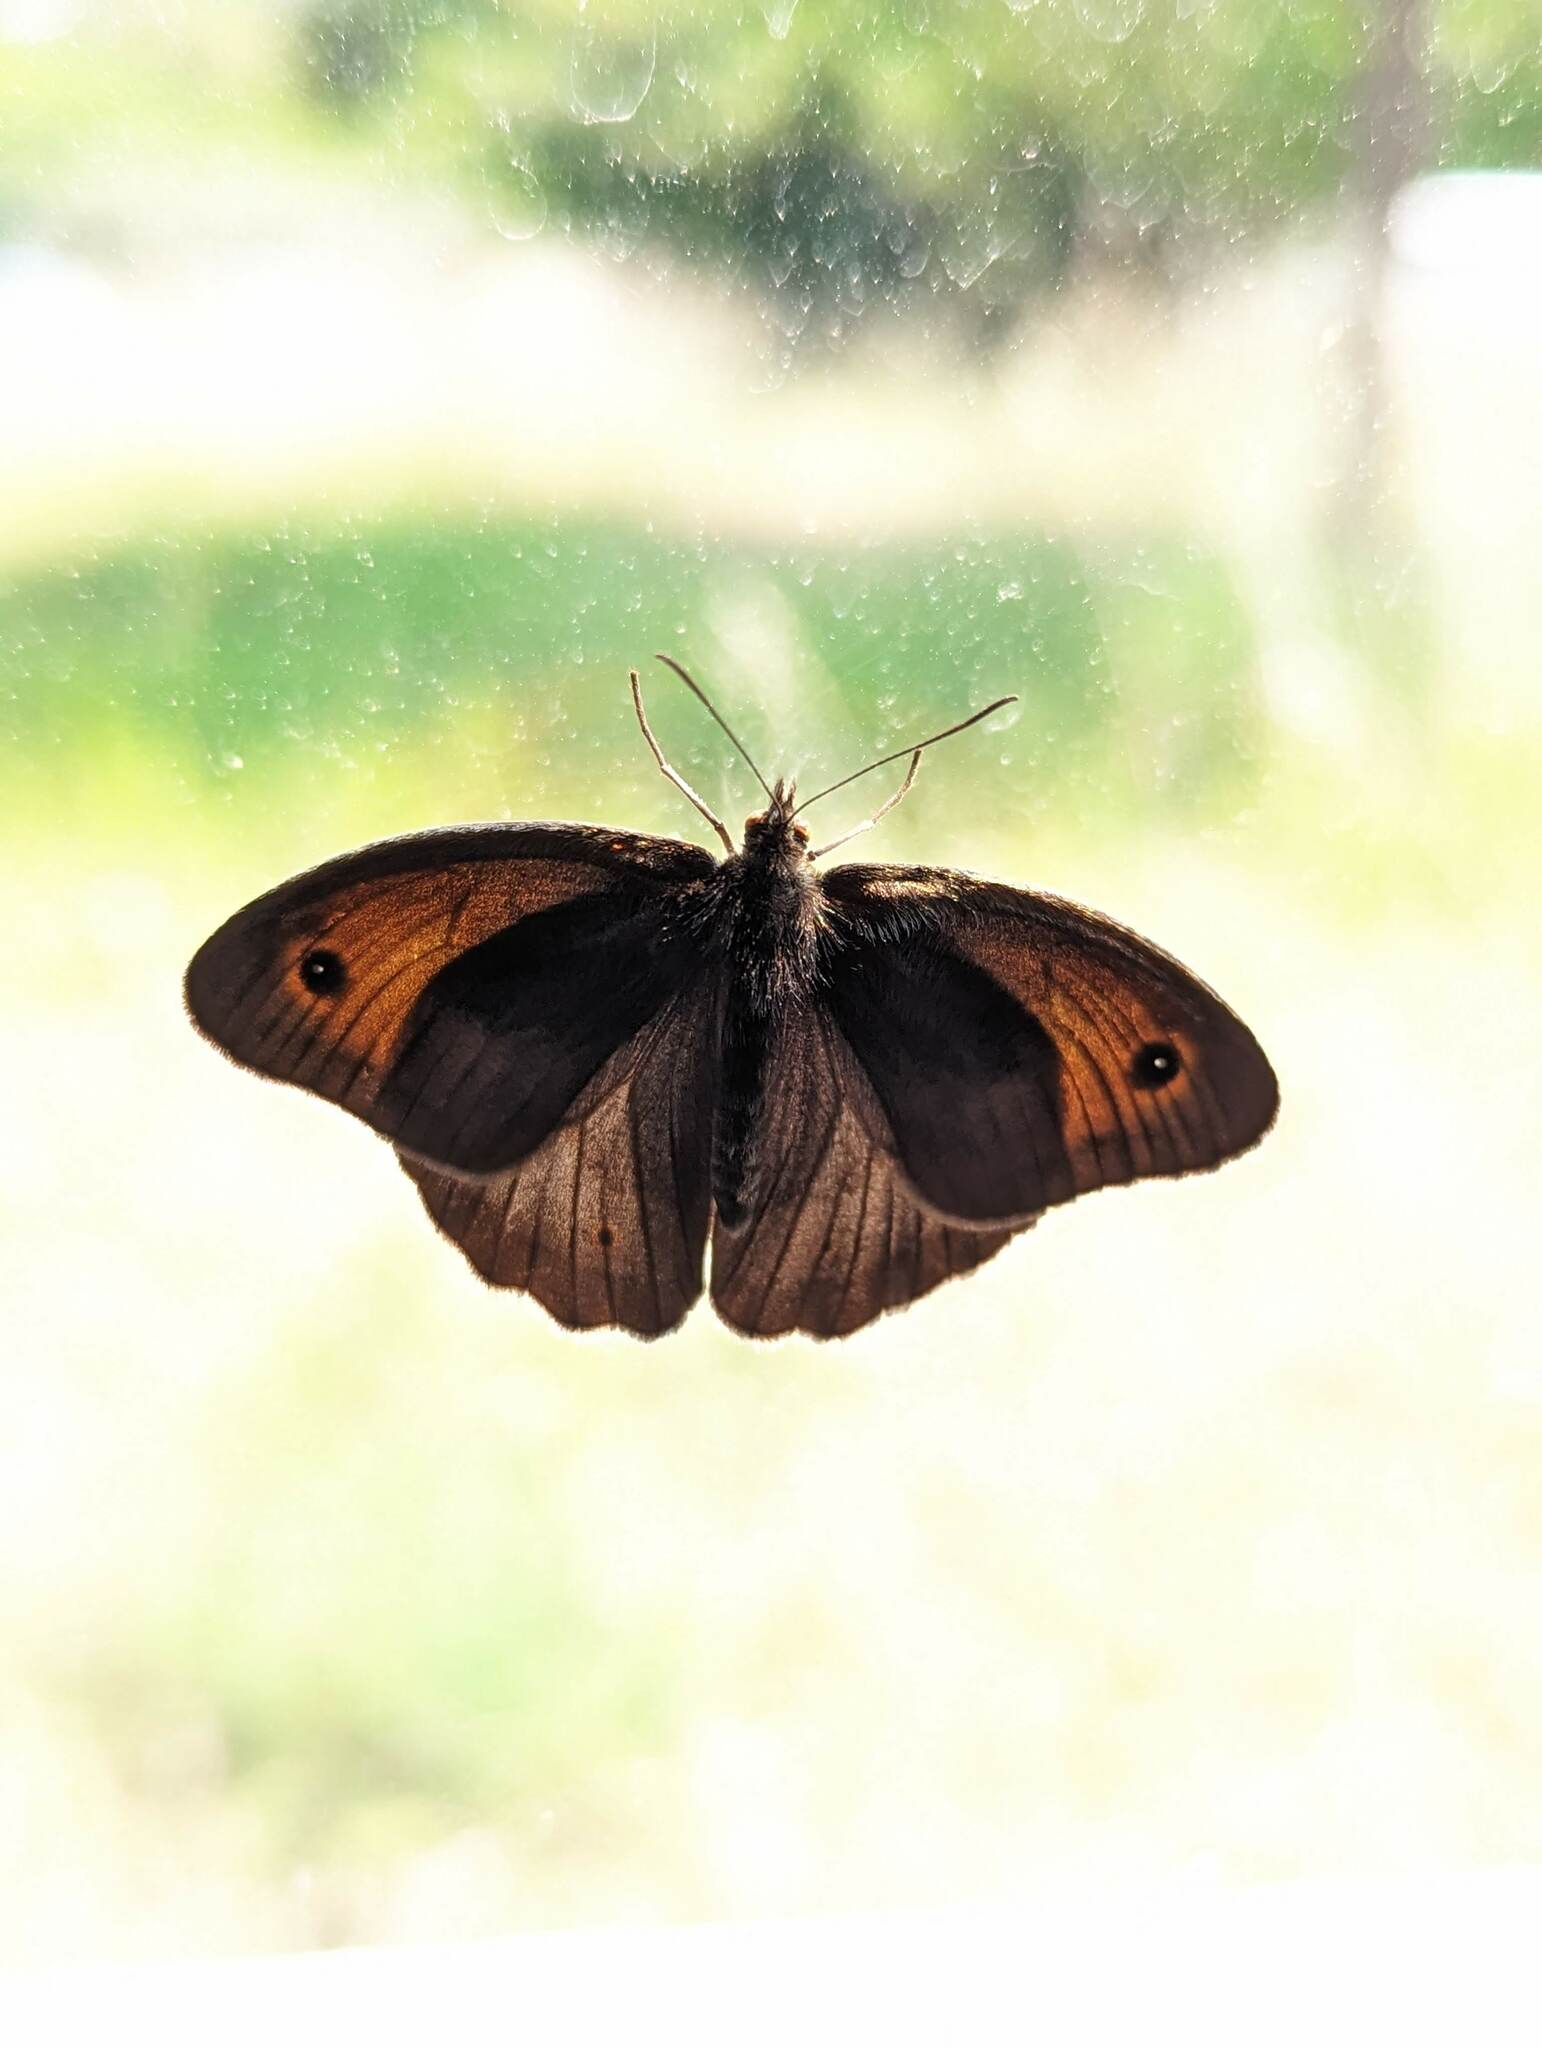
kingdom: Animalia
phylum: Arthropoda
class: Insecta
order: Lepidoptera
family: Nymphalidae
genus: Maniola
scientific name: Maniola jurtina
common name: Meadow brown
